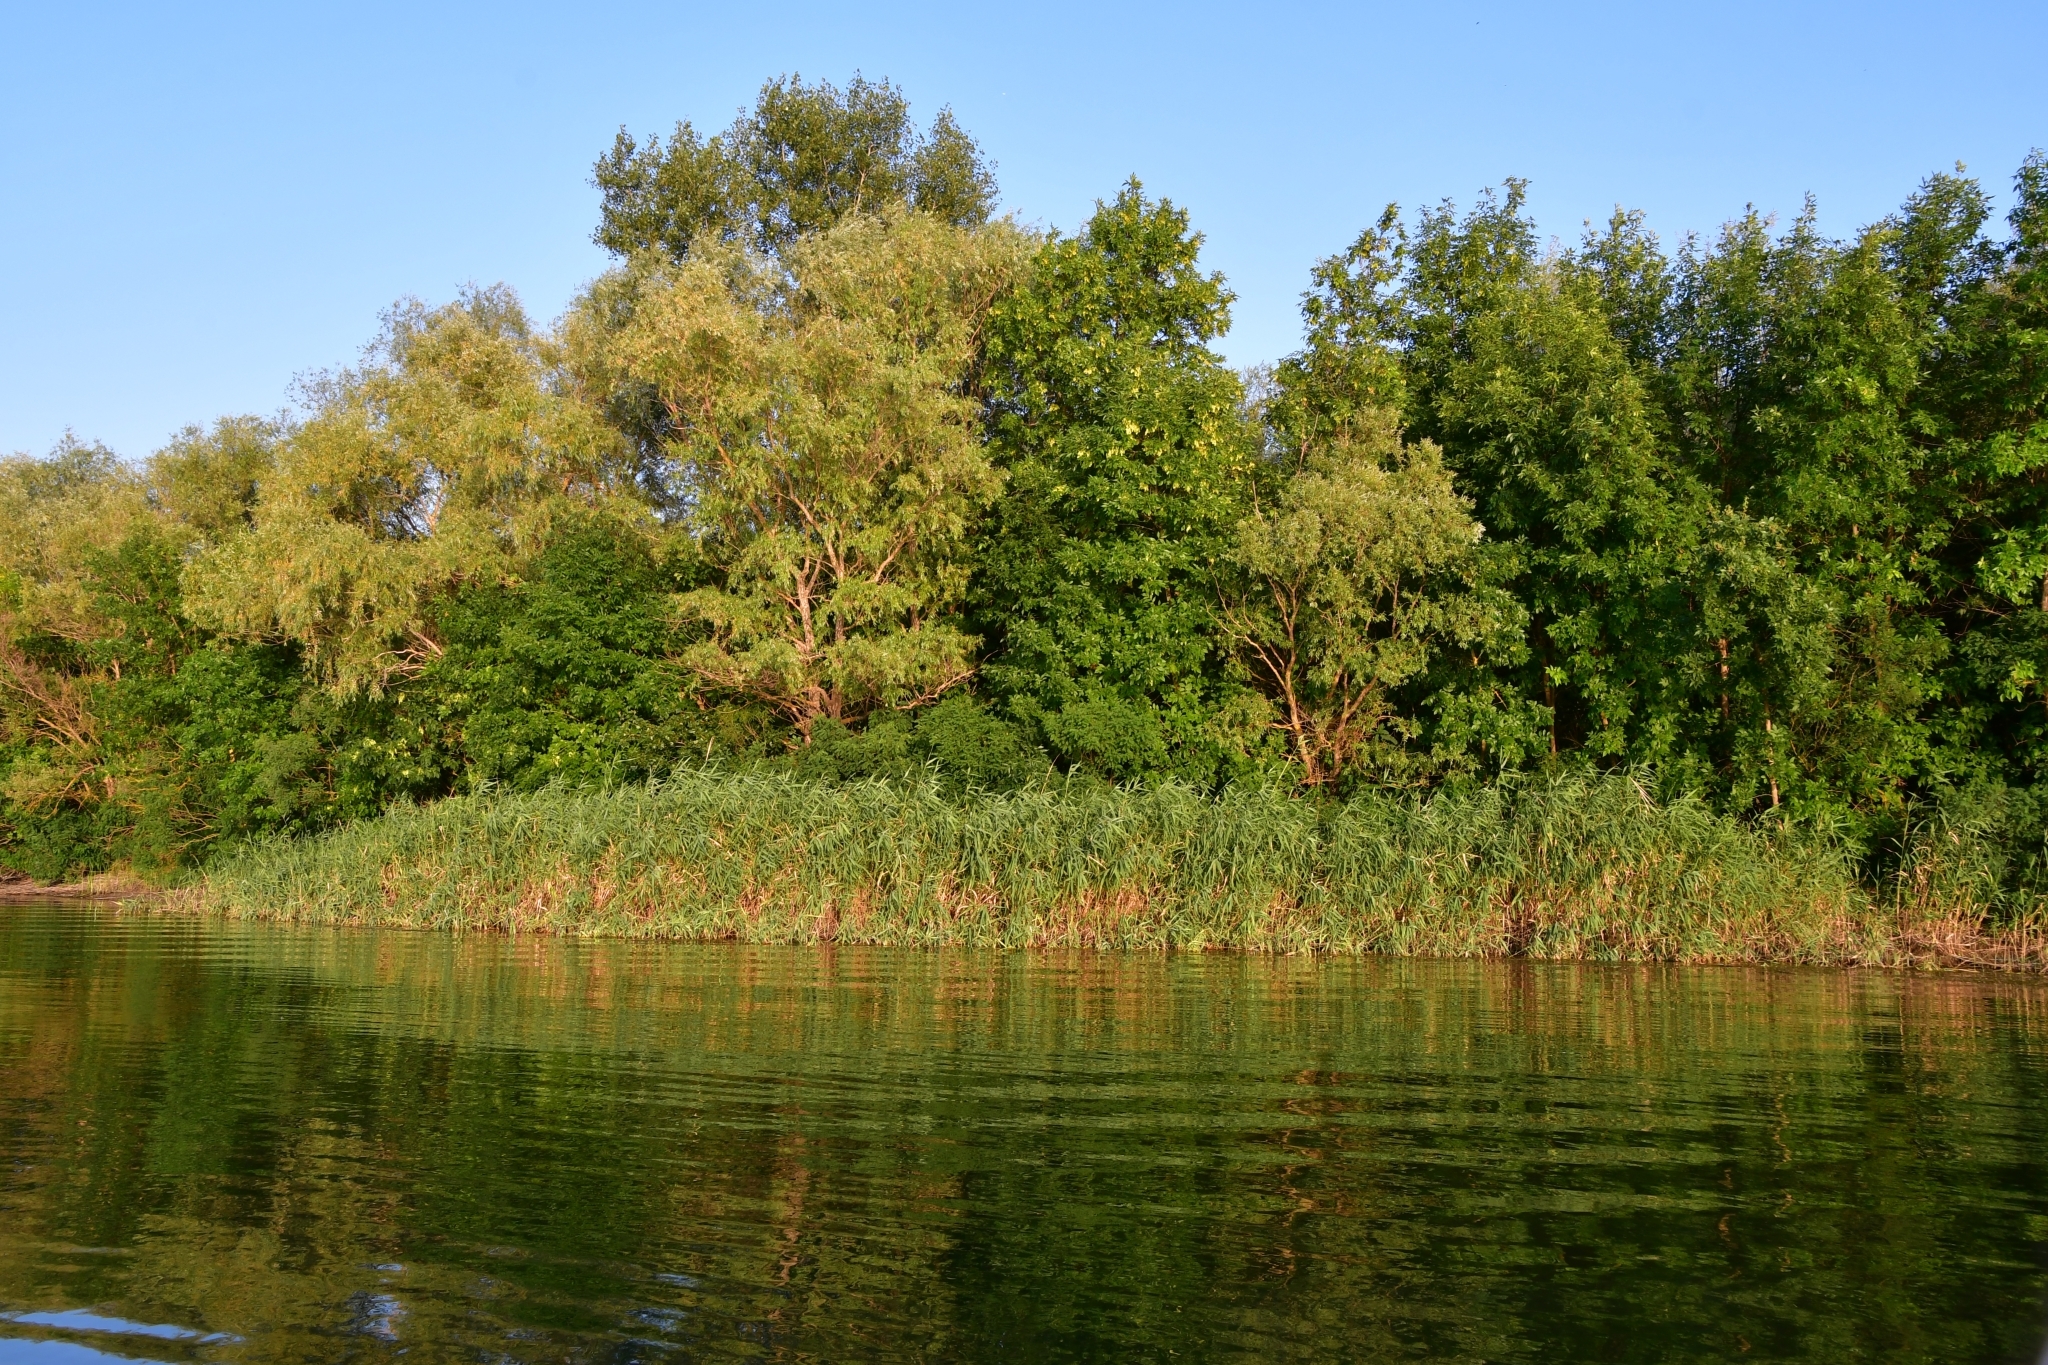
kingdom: Plantae
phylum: Tracheophyta
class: Liliopsida
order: Poales
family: Poaceae
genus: Phragmites
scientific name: Phragmites australis
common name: Common reed
